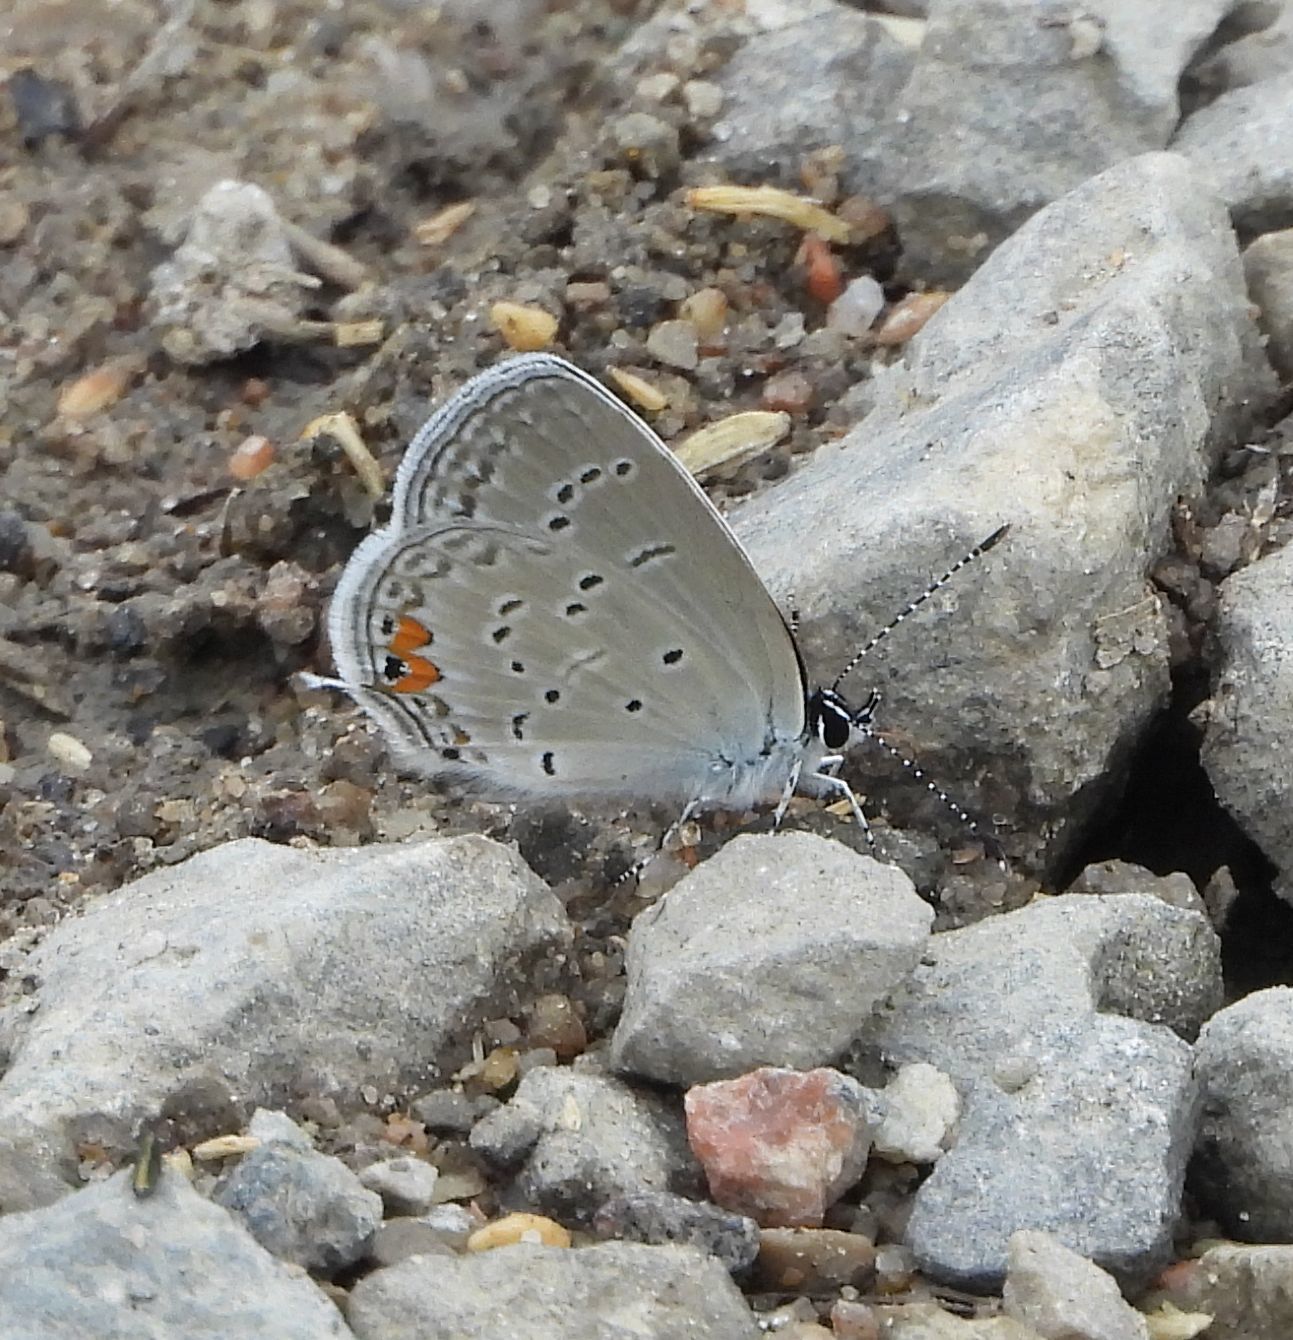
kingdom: Animalia
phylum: Arthropoda
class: Insecta
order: Lepidoptera
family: Lycaenidae
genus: Elkalyce
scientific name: Elkalyce comyntas
